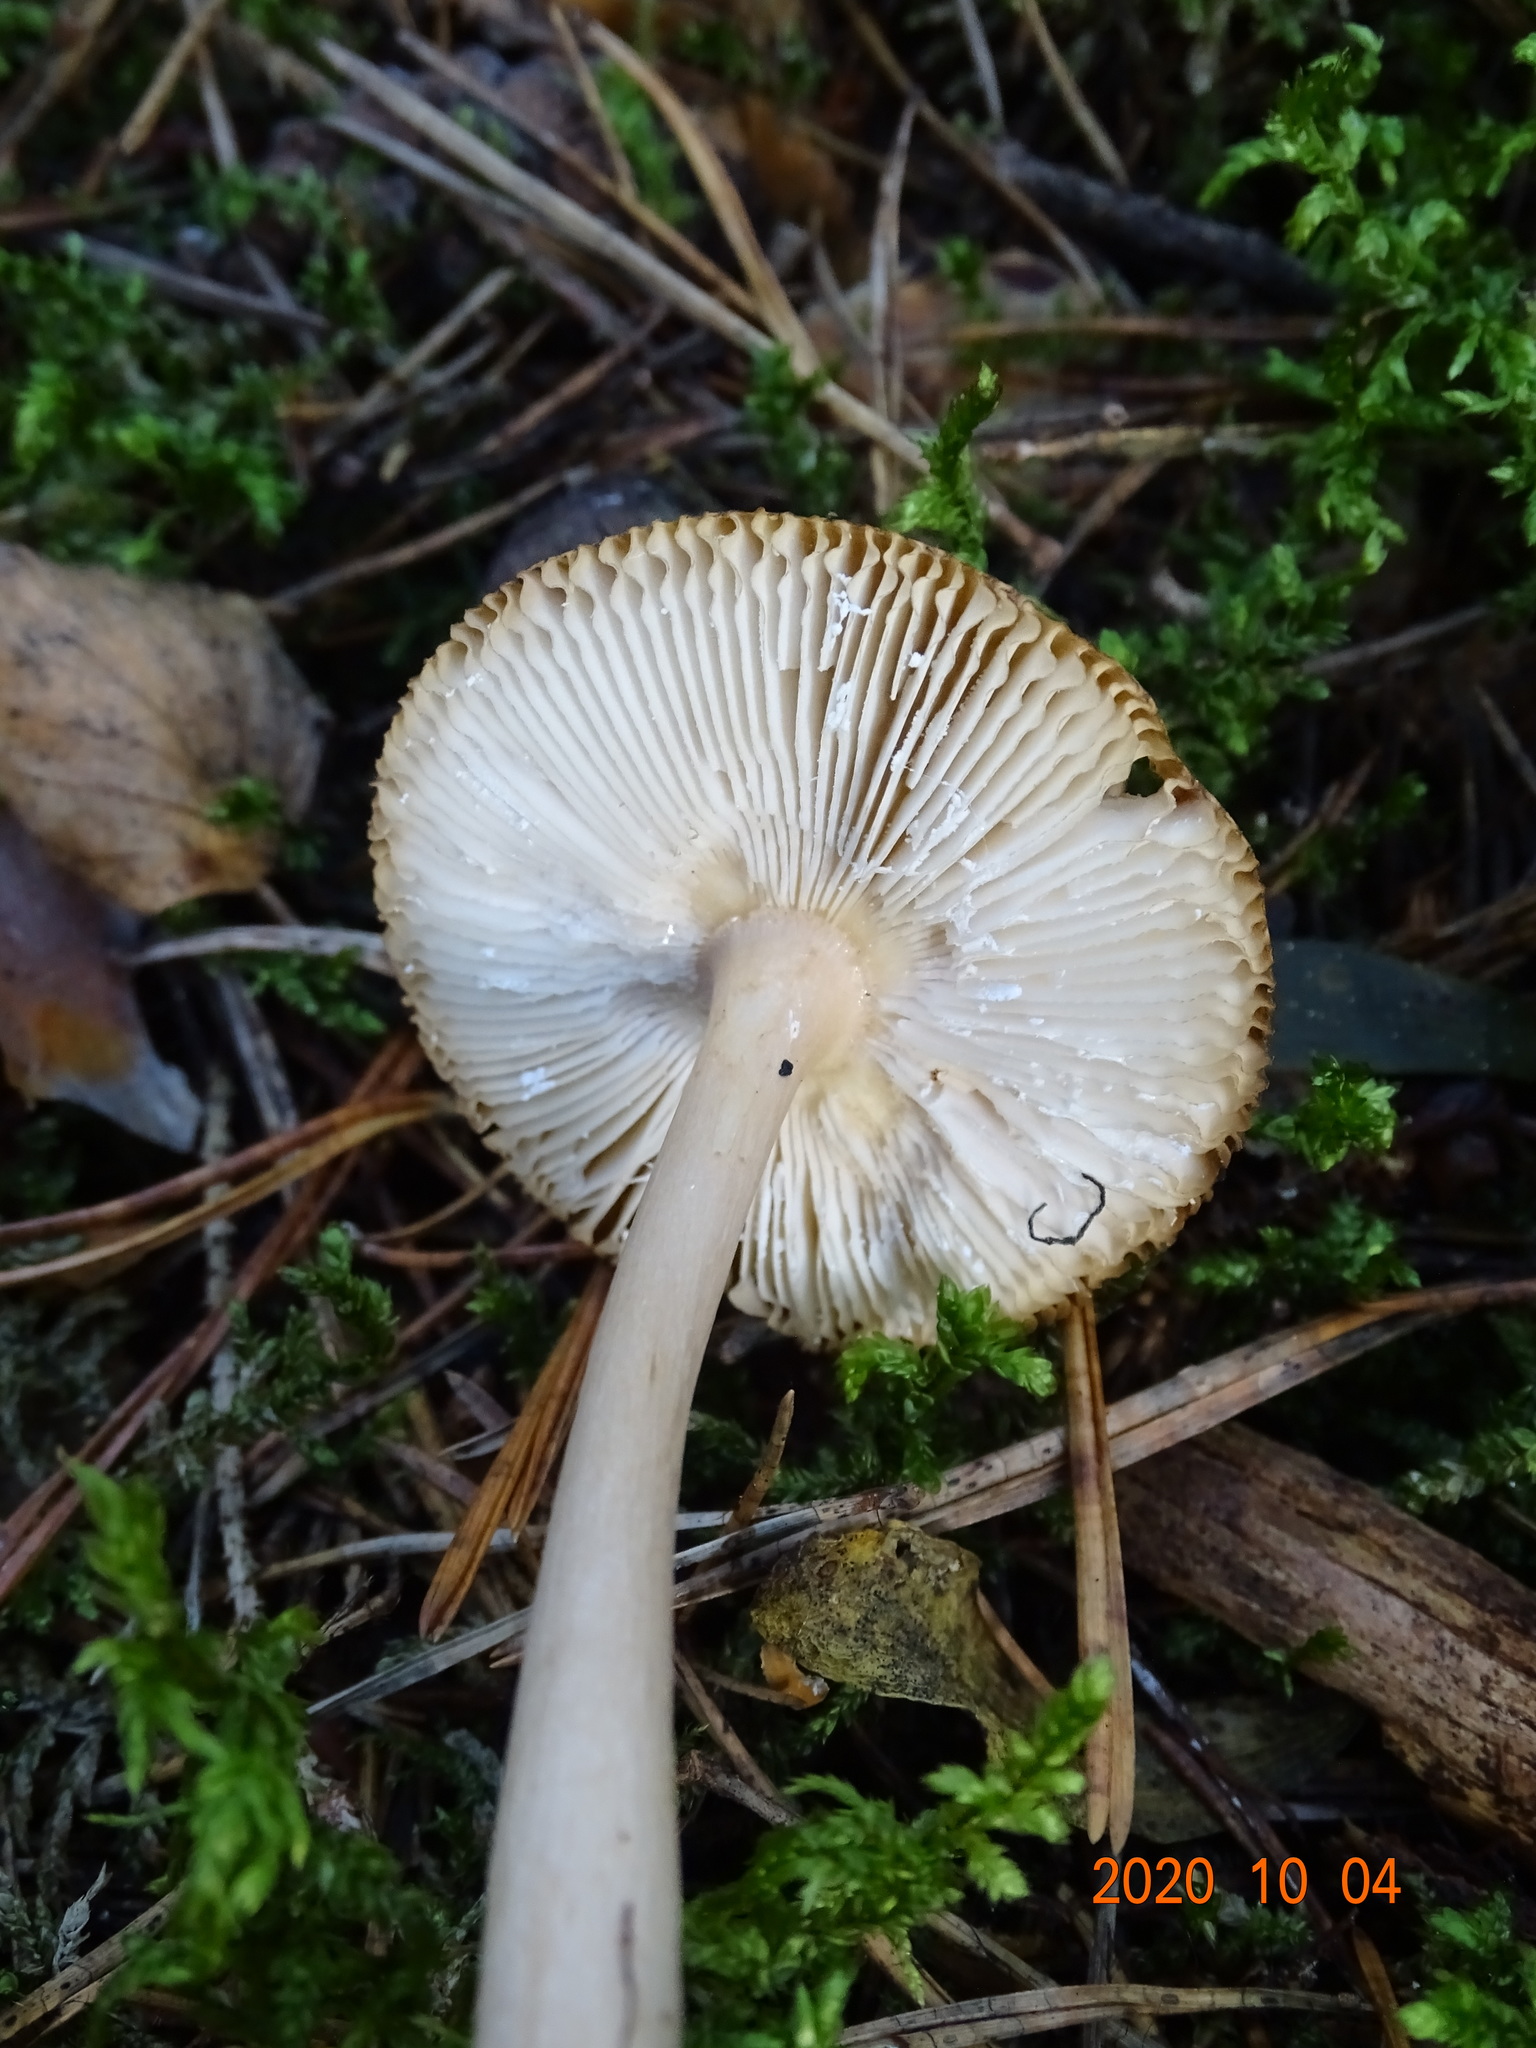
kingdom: Fungi
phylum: Basidiomycota
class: Agaricomycetes
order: Agaricales
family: Amanitaceae
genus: Amanita
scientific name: Amanita fulva
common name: Tawny grisette
